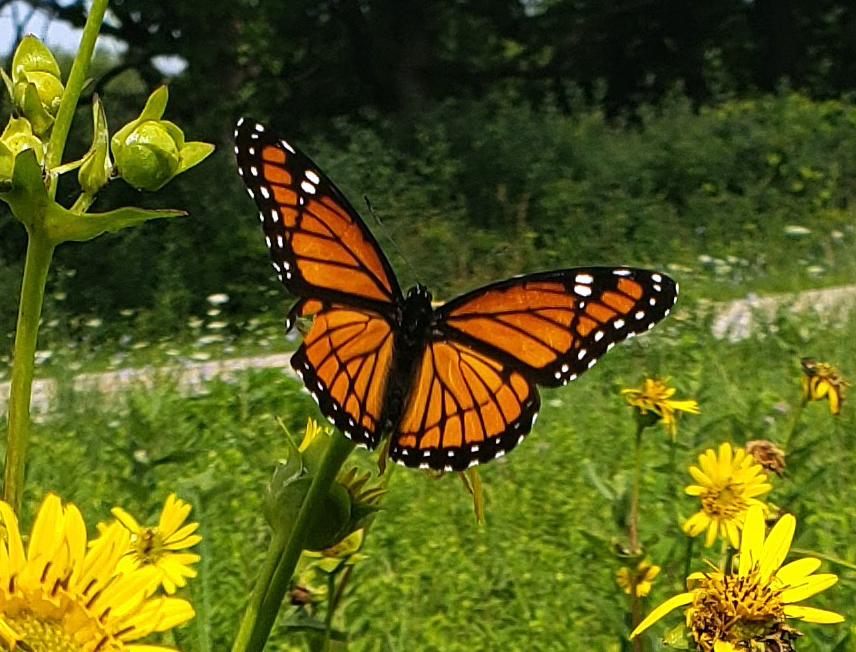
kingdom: Animalia
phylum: Arthropoda
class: Insecta
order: Lepidoptera
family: Nymphalidae
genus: Limenitis
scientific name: Limenitis archippus
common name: Viceroy
